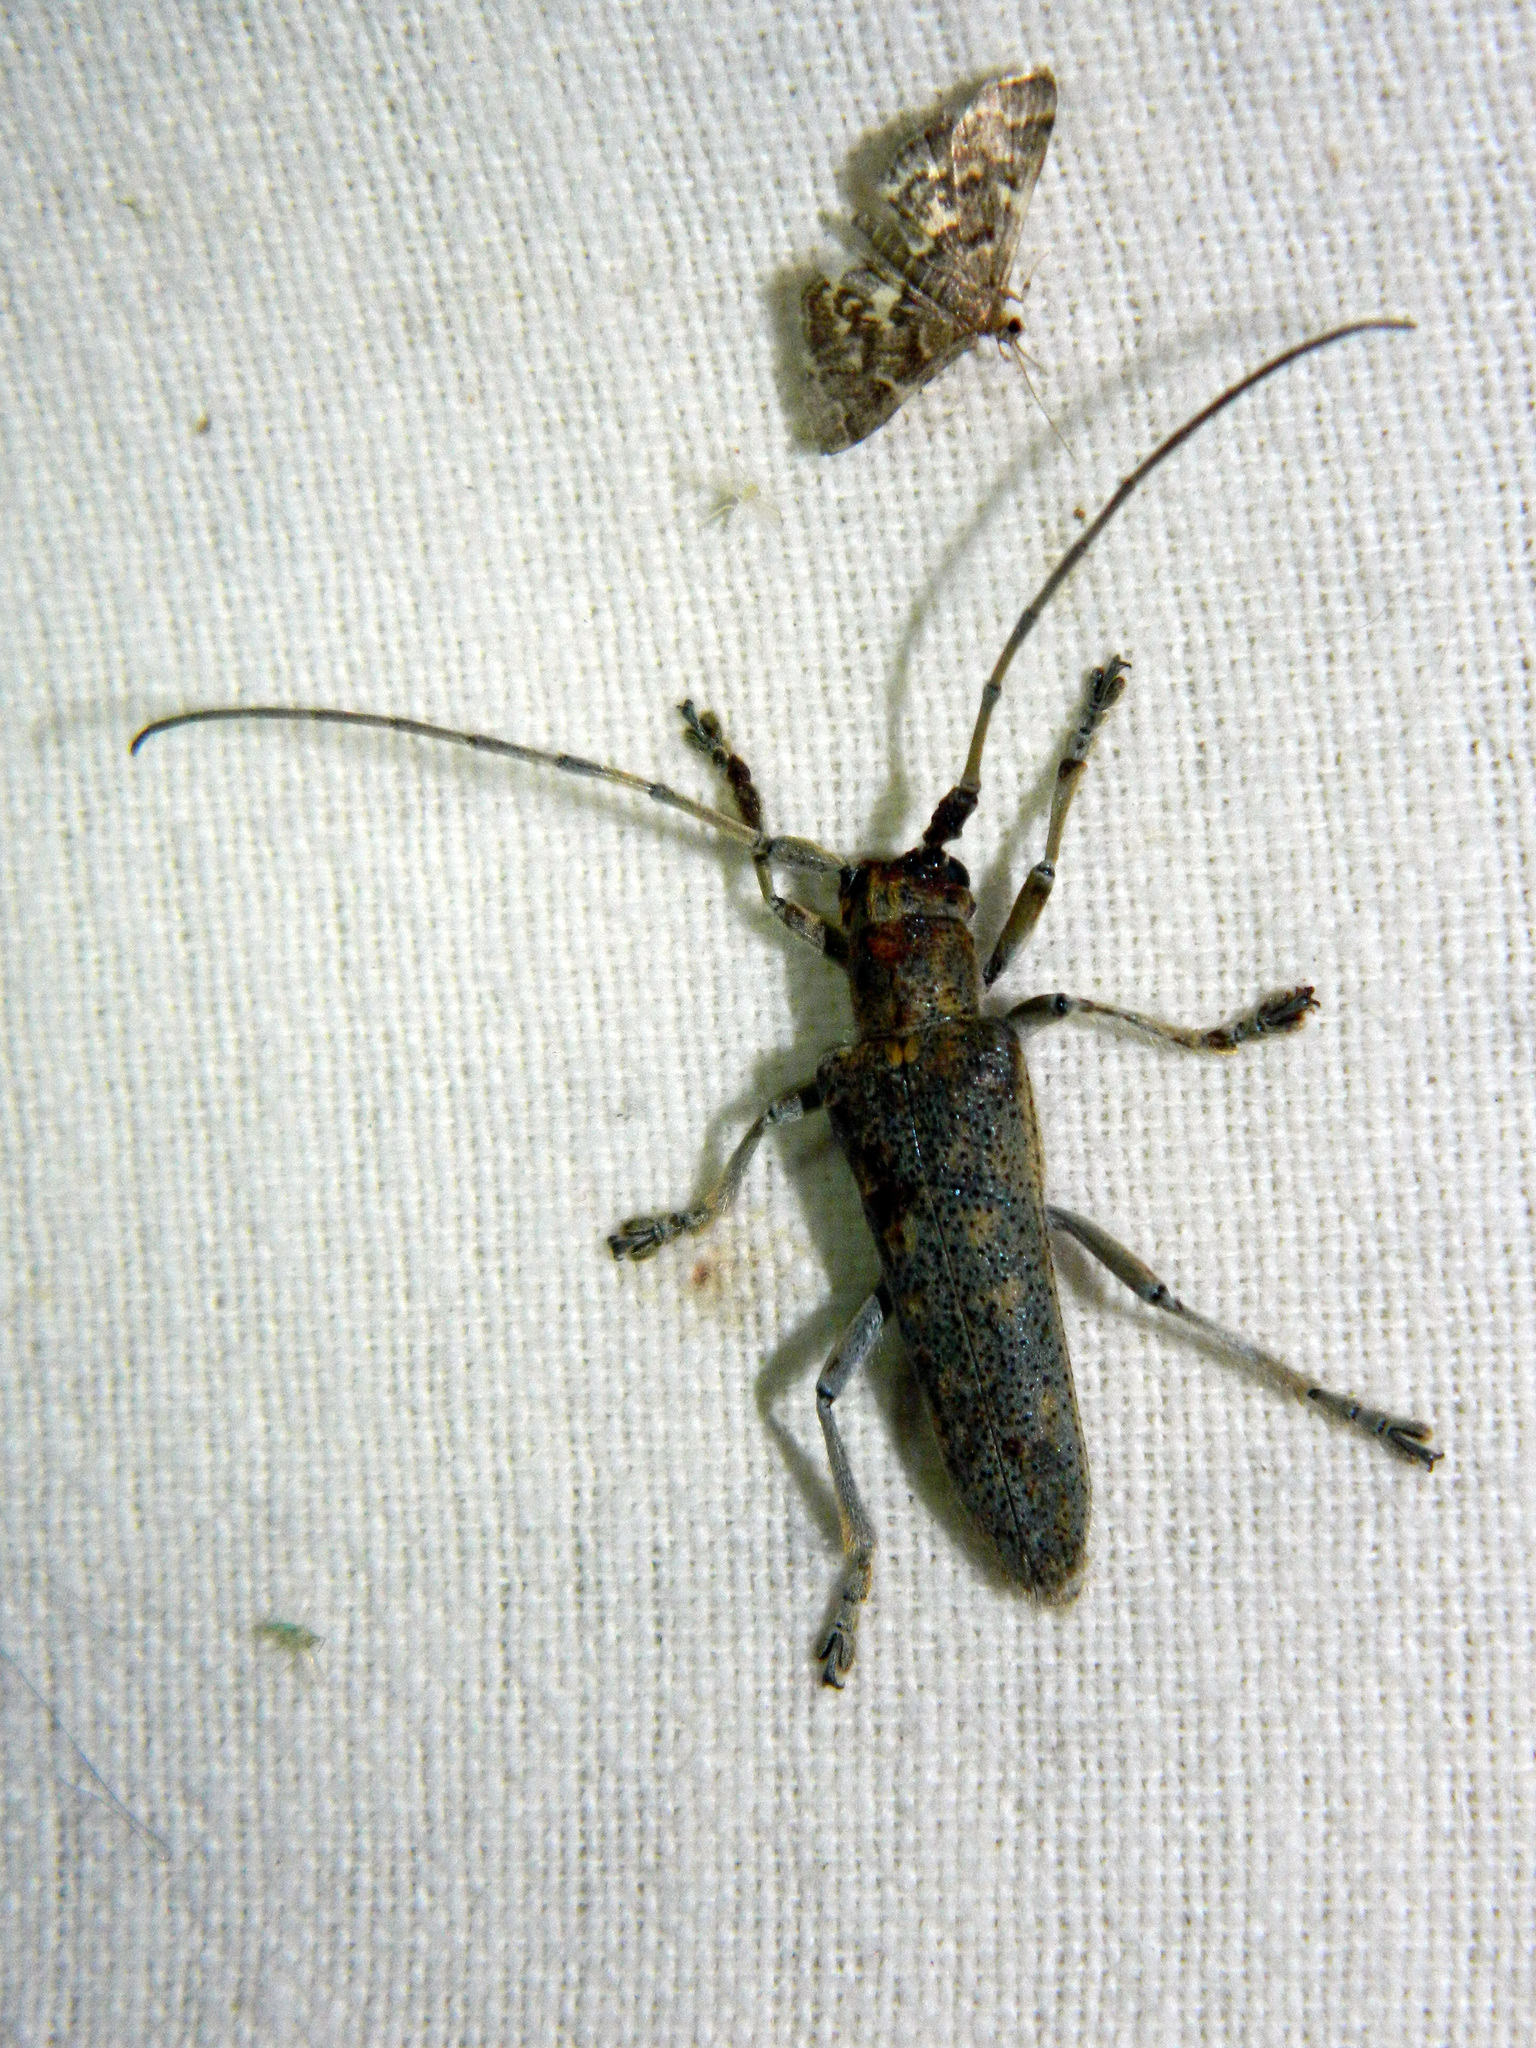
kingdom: Animalia
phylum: Arthropoda
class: Insecta
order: Coleoptera
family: Cerambycidae
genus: Saperda
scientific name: Saperda calcarata
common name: Poplar borer
